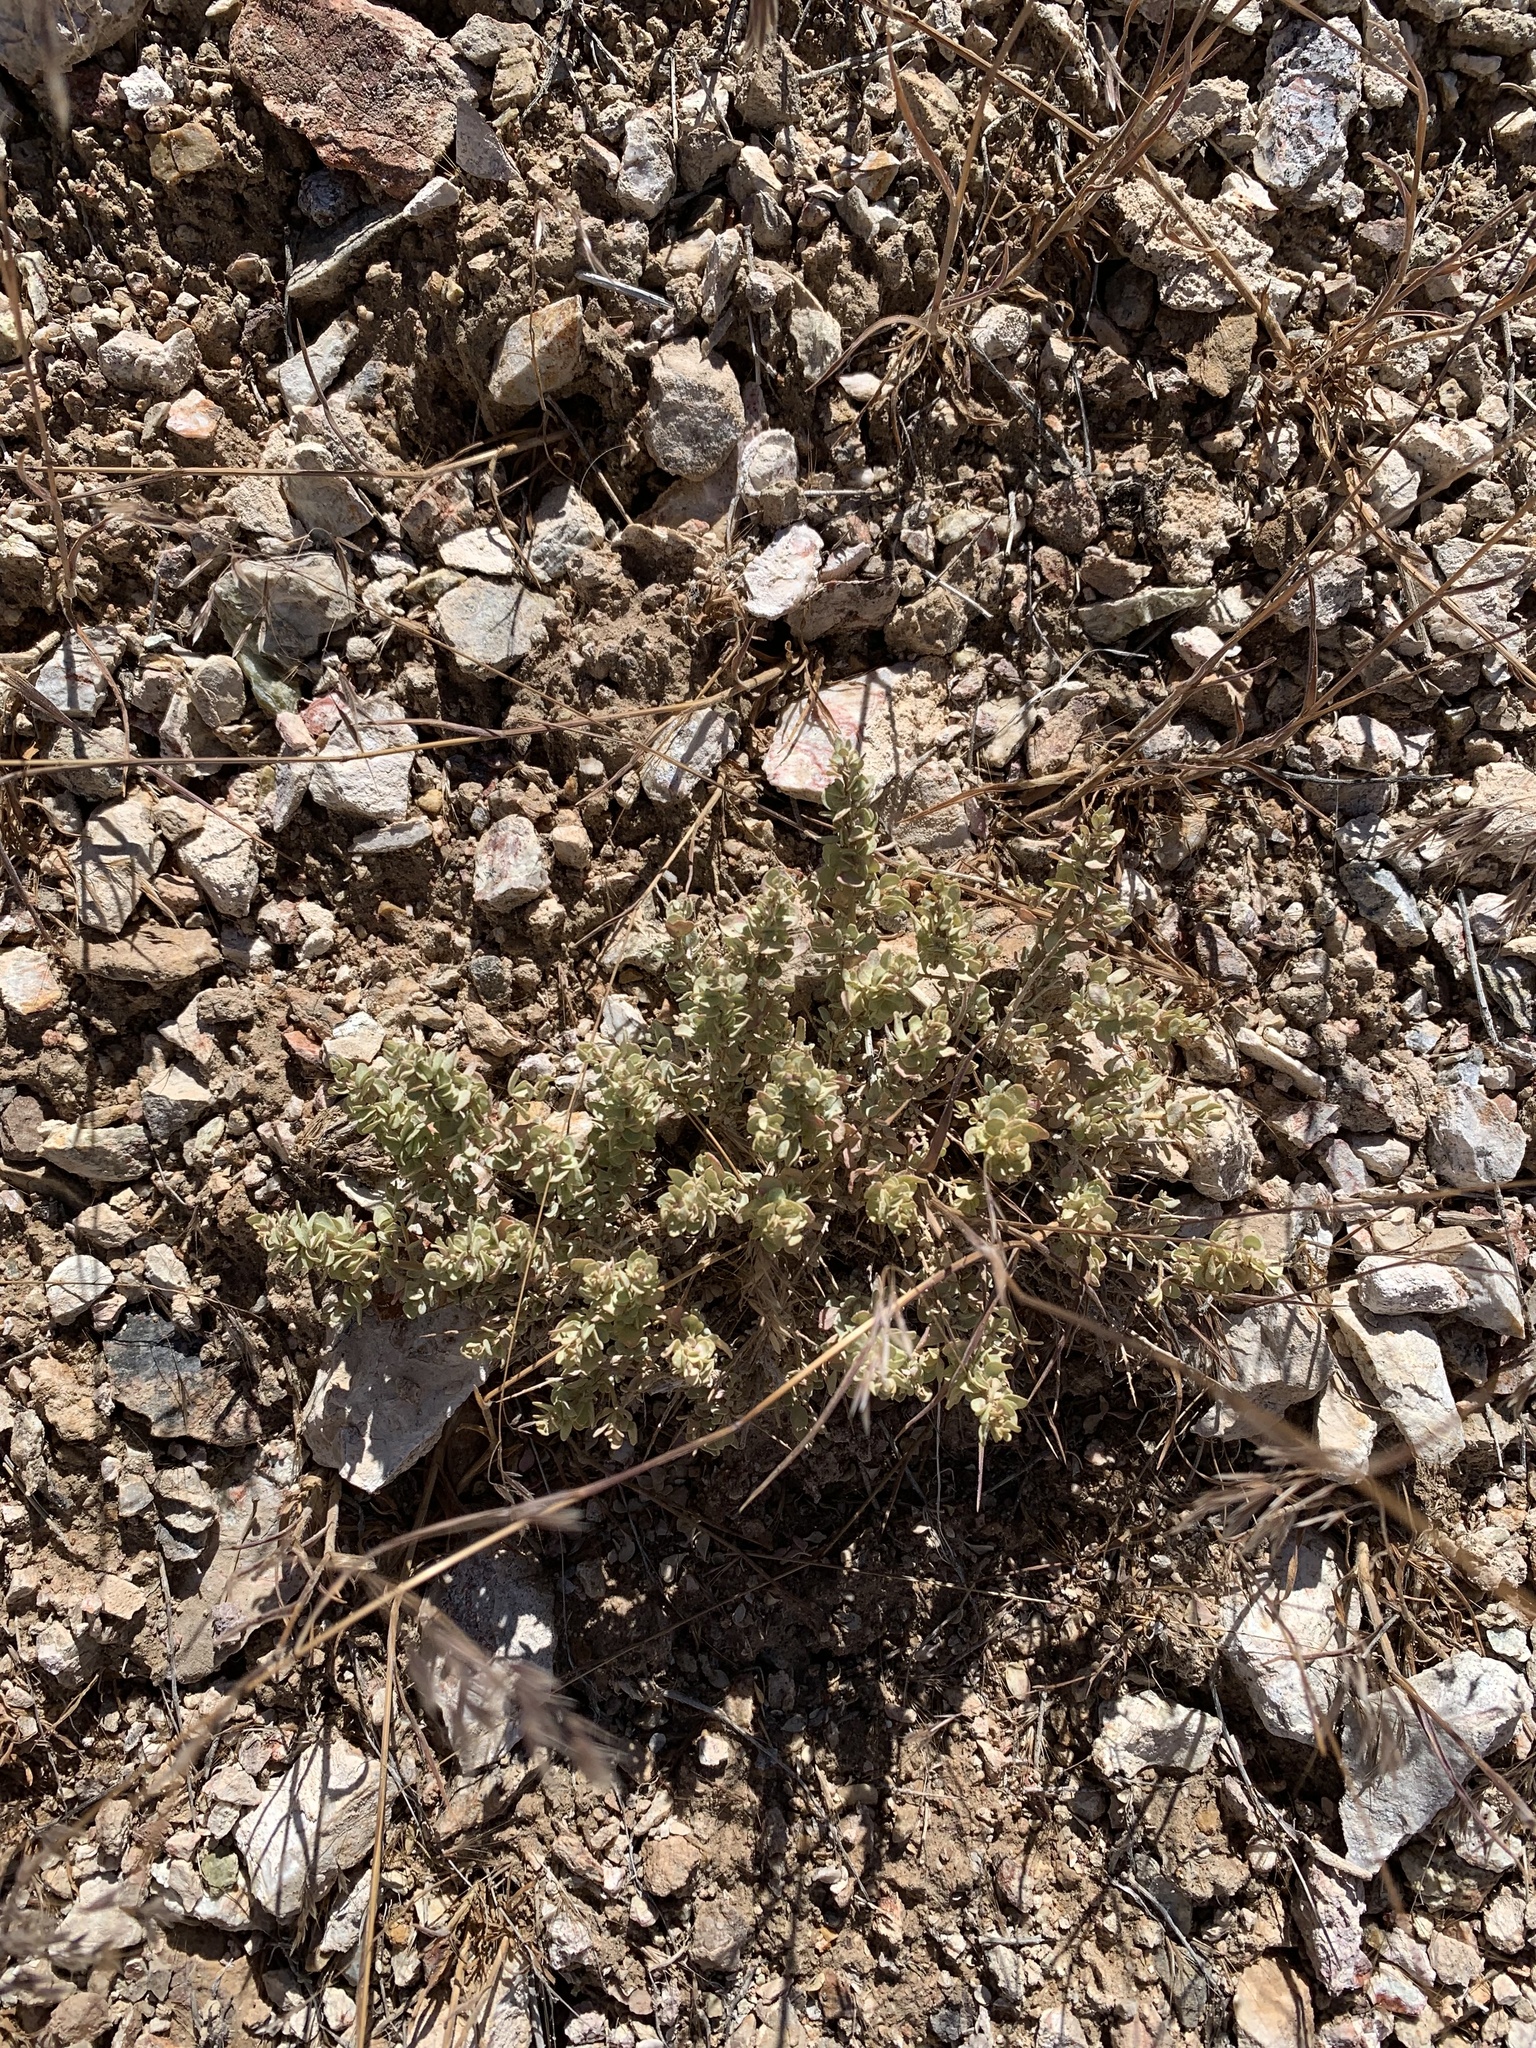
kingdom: Plantae
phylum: Tracheophyta
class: Magnoliopsida
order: Caryophyllales
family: Amaranthaceae
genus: Atriplex
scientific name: Atriplex confertifolia
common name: Shadscale
